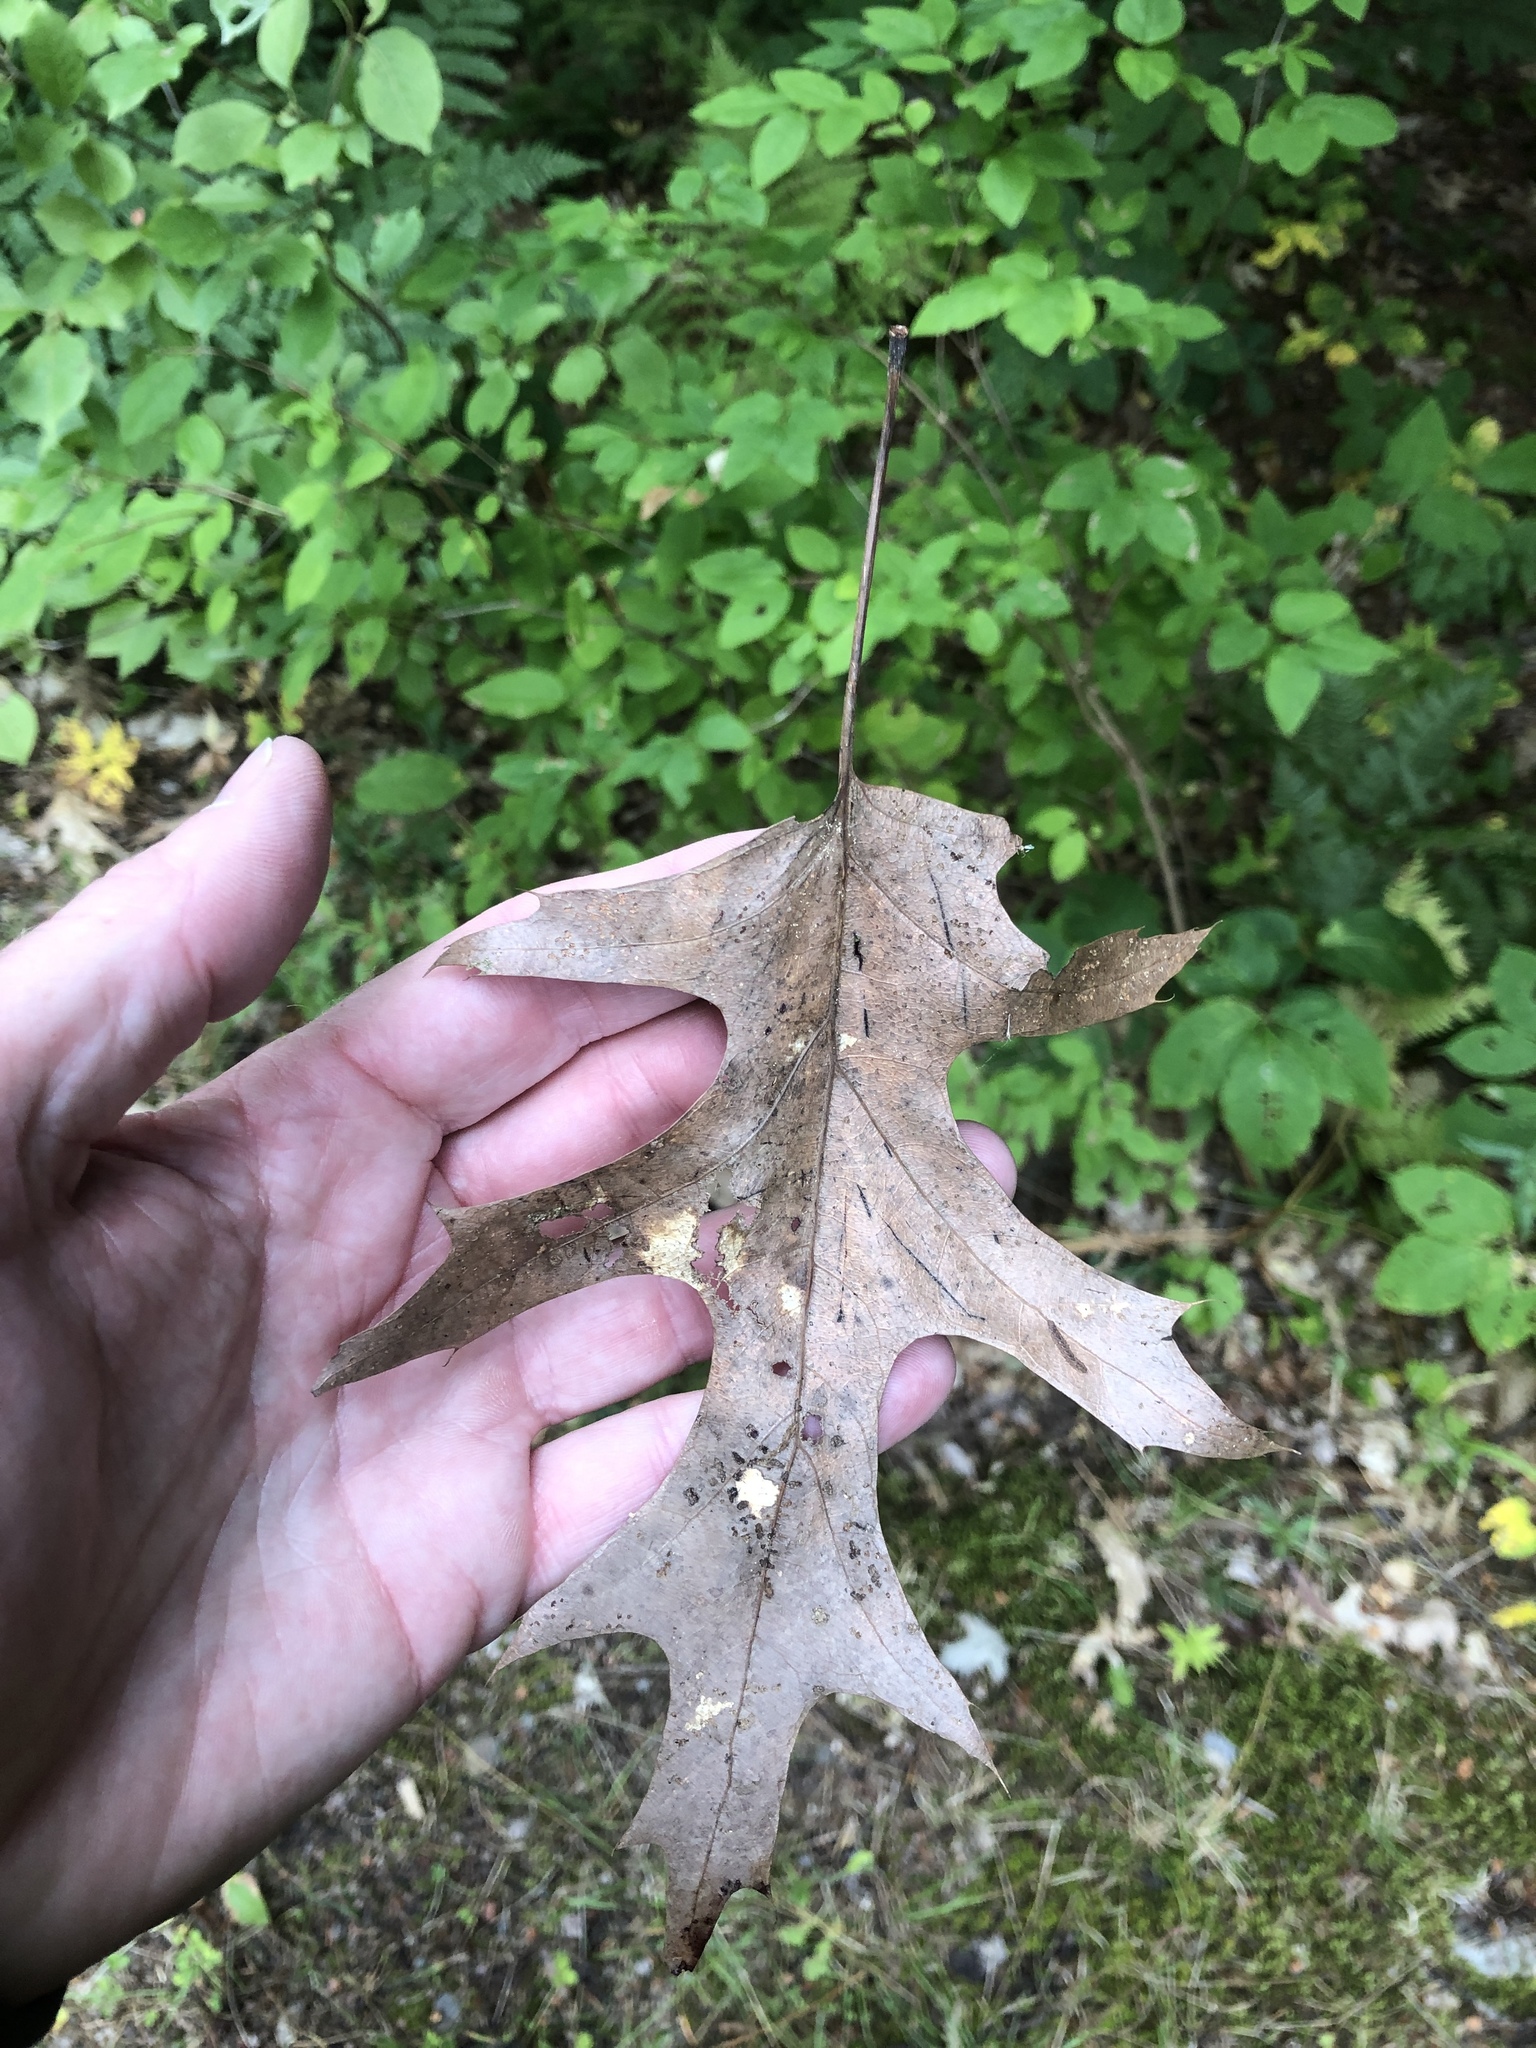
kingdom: Plantae
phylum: Tracheophyta
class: Magnoliopsida
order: Fagales
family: Fagaceae
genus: Quercus
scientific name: Quercus rubra
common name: Red oak
